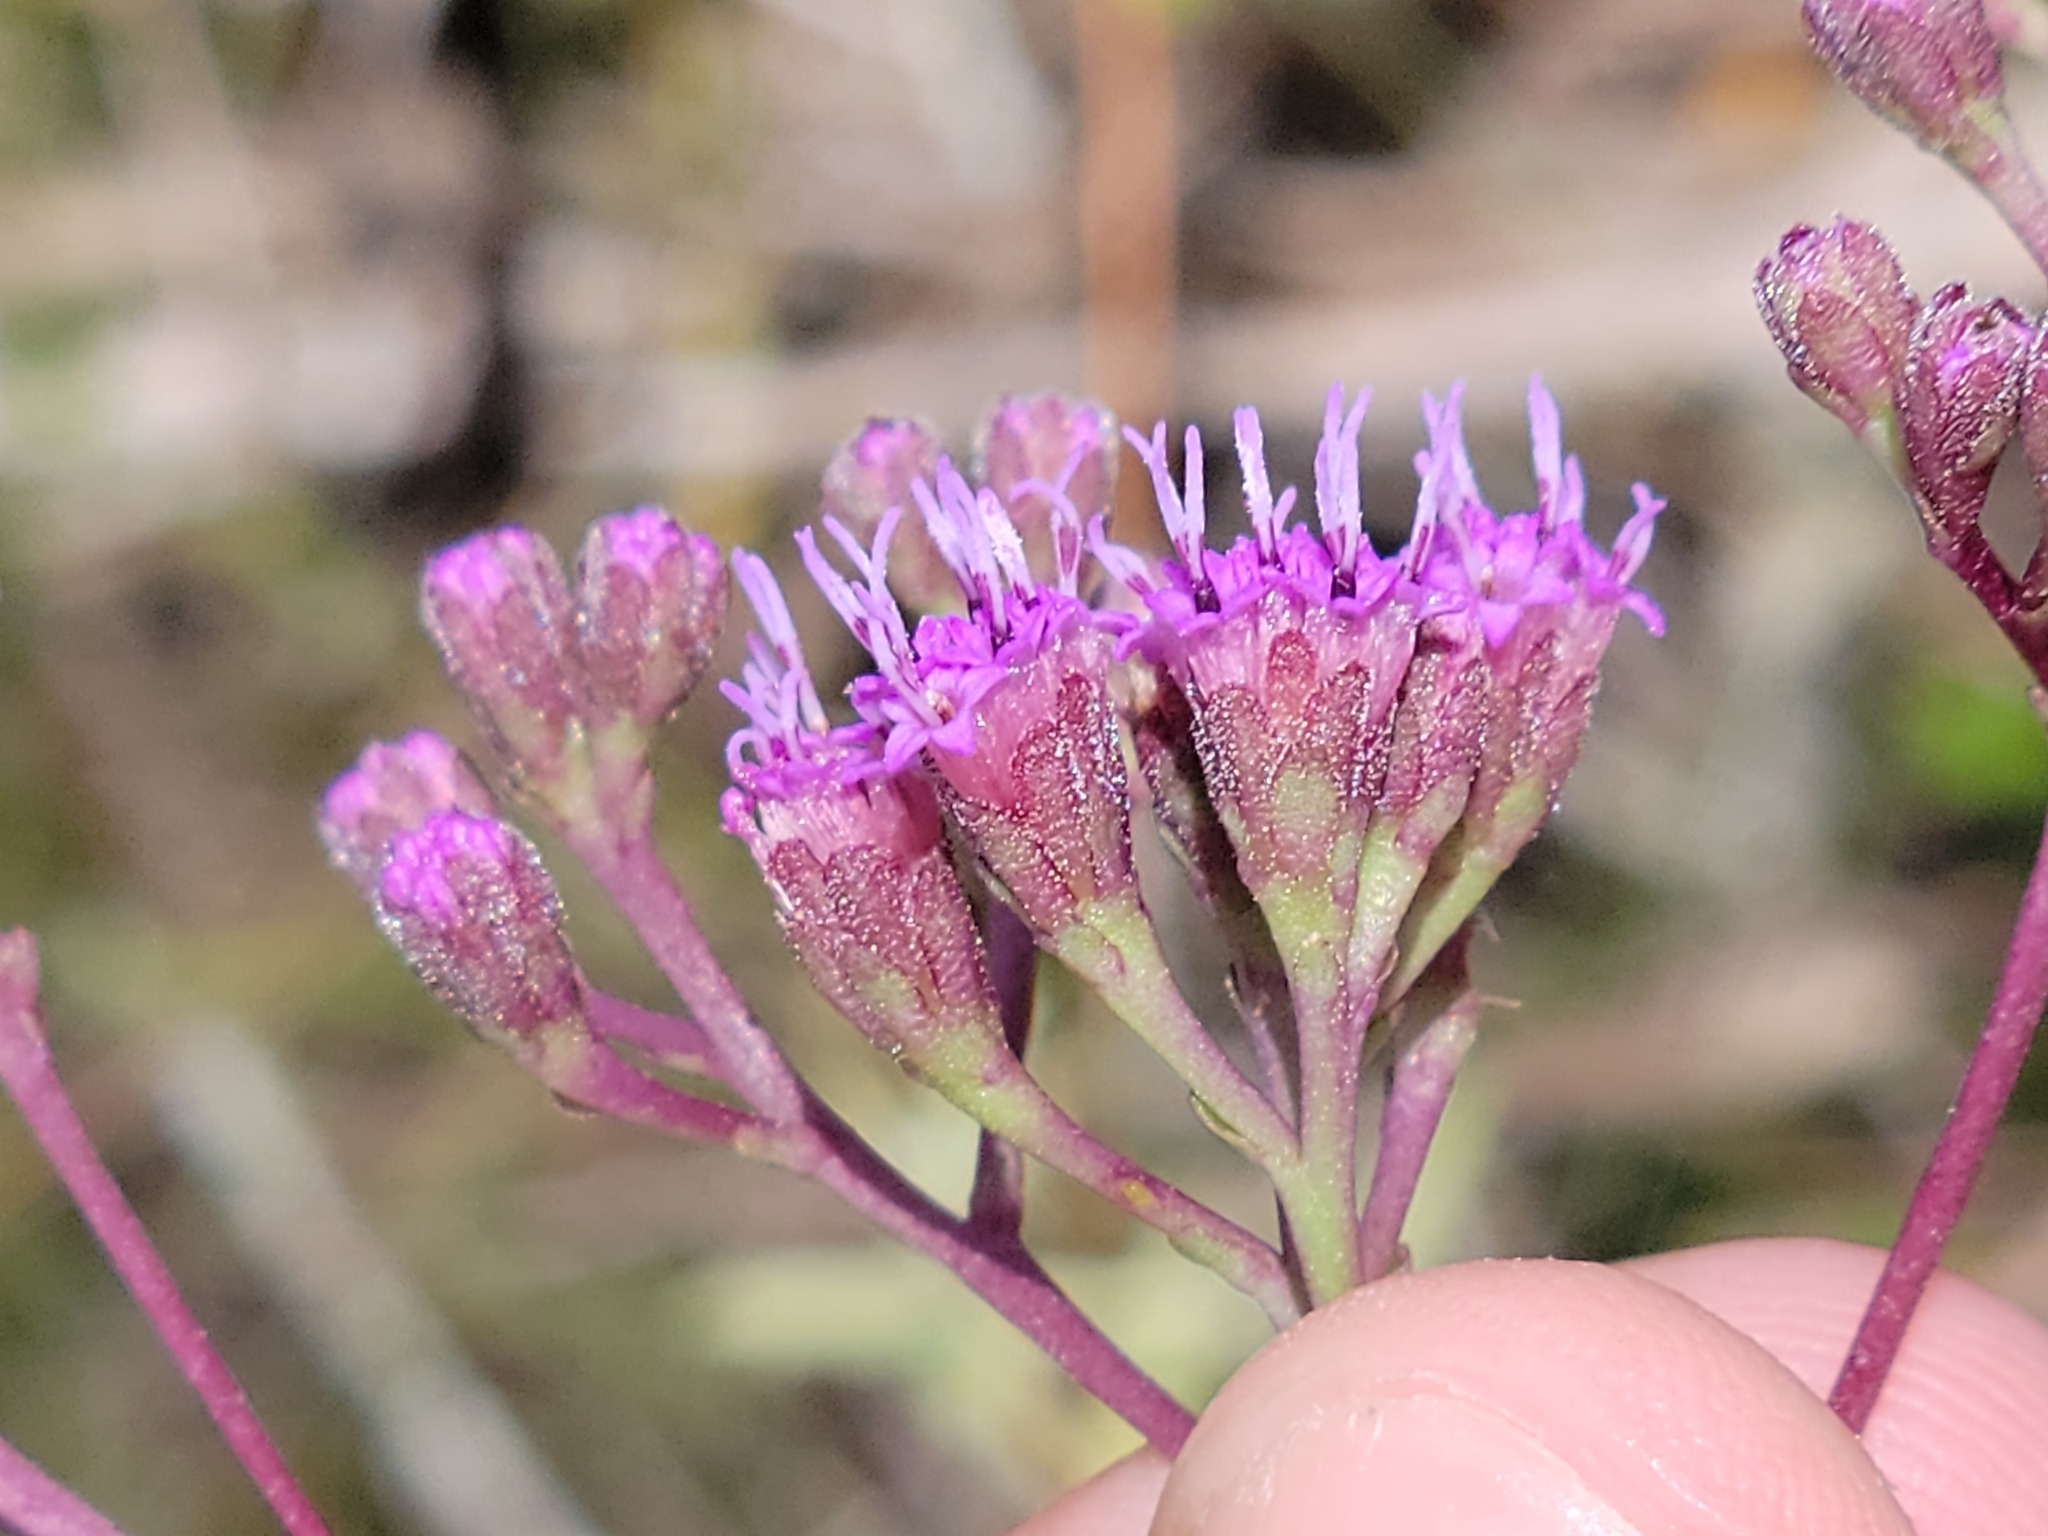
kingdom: Plantae
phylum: Tracheophyta
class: Magnoliopsida
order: Asterales
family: Asteraceae
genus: Carphephorus
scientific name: Carphephorus
